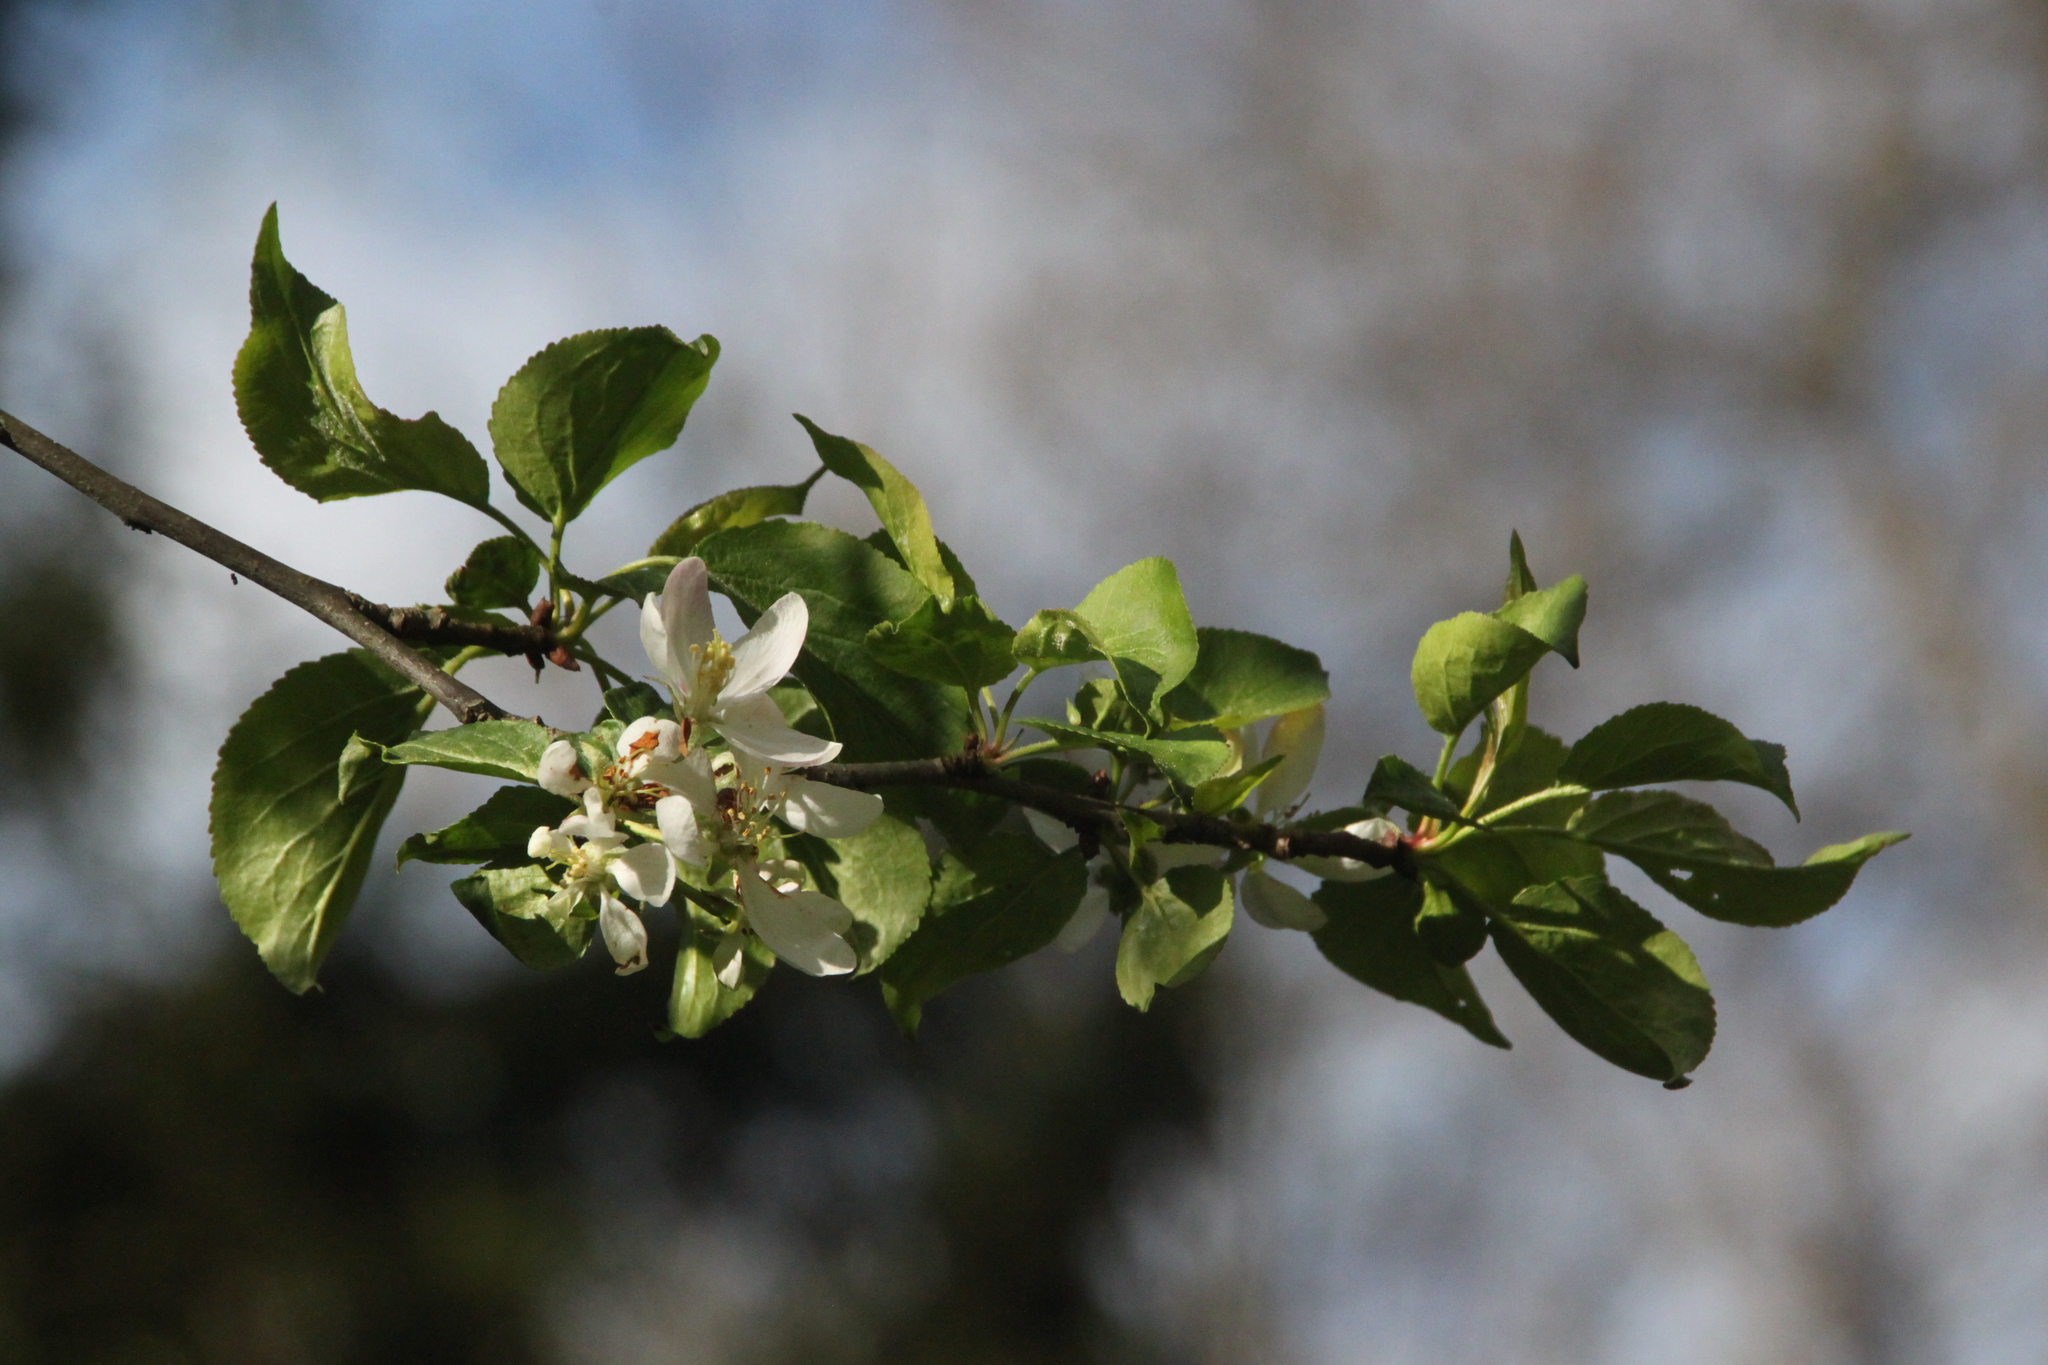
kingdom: Plantae
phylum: Tracheophyta
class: Magnoliopsida
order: Rosales
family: Rosaceae
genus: Malus
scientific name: Malus sylvestris
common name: Crab apple
